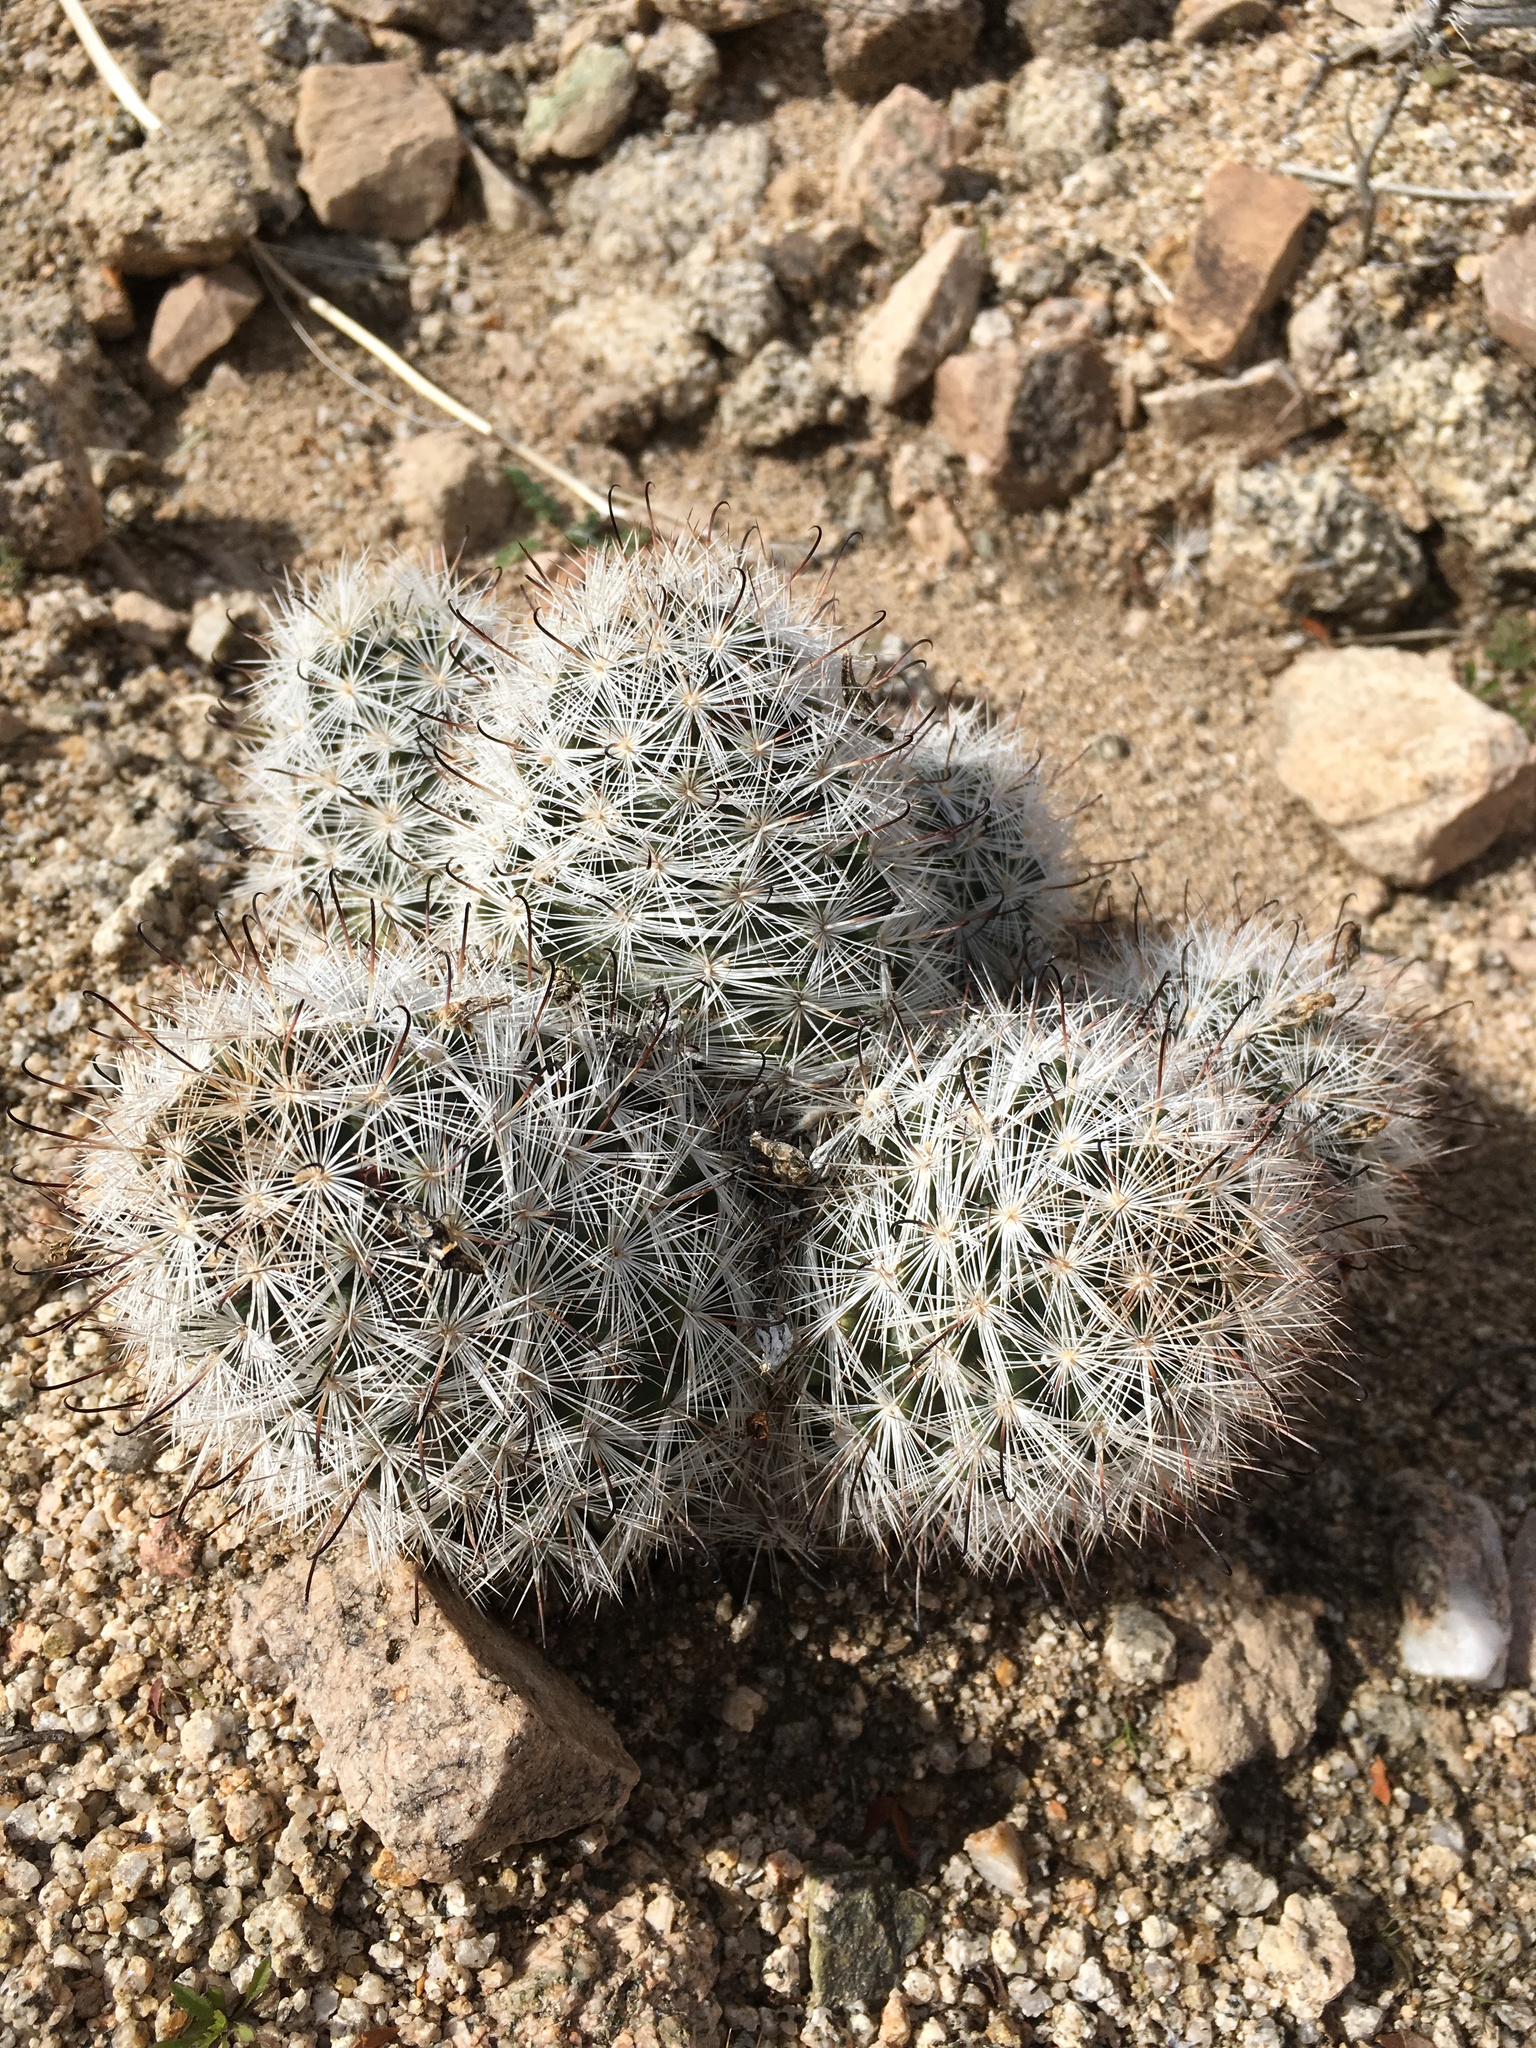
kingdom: Plantae
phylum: Tracheophyta
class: Magnoliopsida
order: Caryophyllales
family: Cactaceae
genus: Cochemiea
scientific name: Cochemiea tetrancistra
